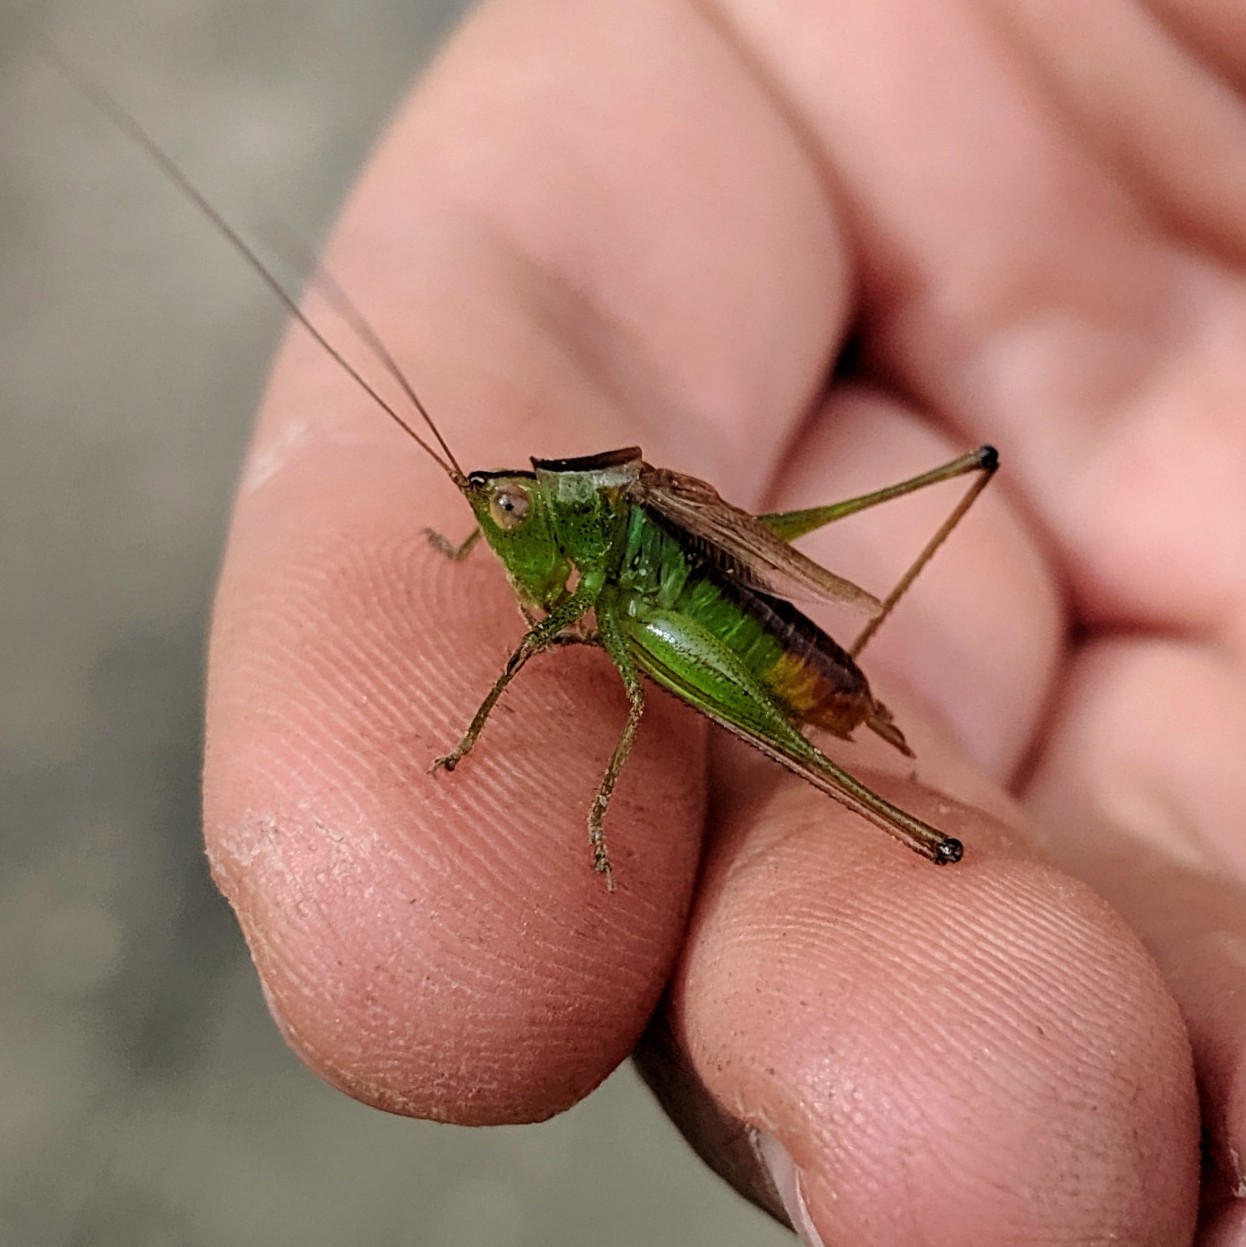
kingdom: Animalia
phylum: Arthropoda
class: Insecta
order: Orthoptera
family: Tettigoniidae
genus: Conocephalus
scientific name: Conocephalus brevipennis
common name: Short-winged meadow katydid
